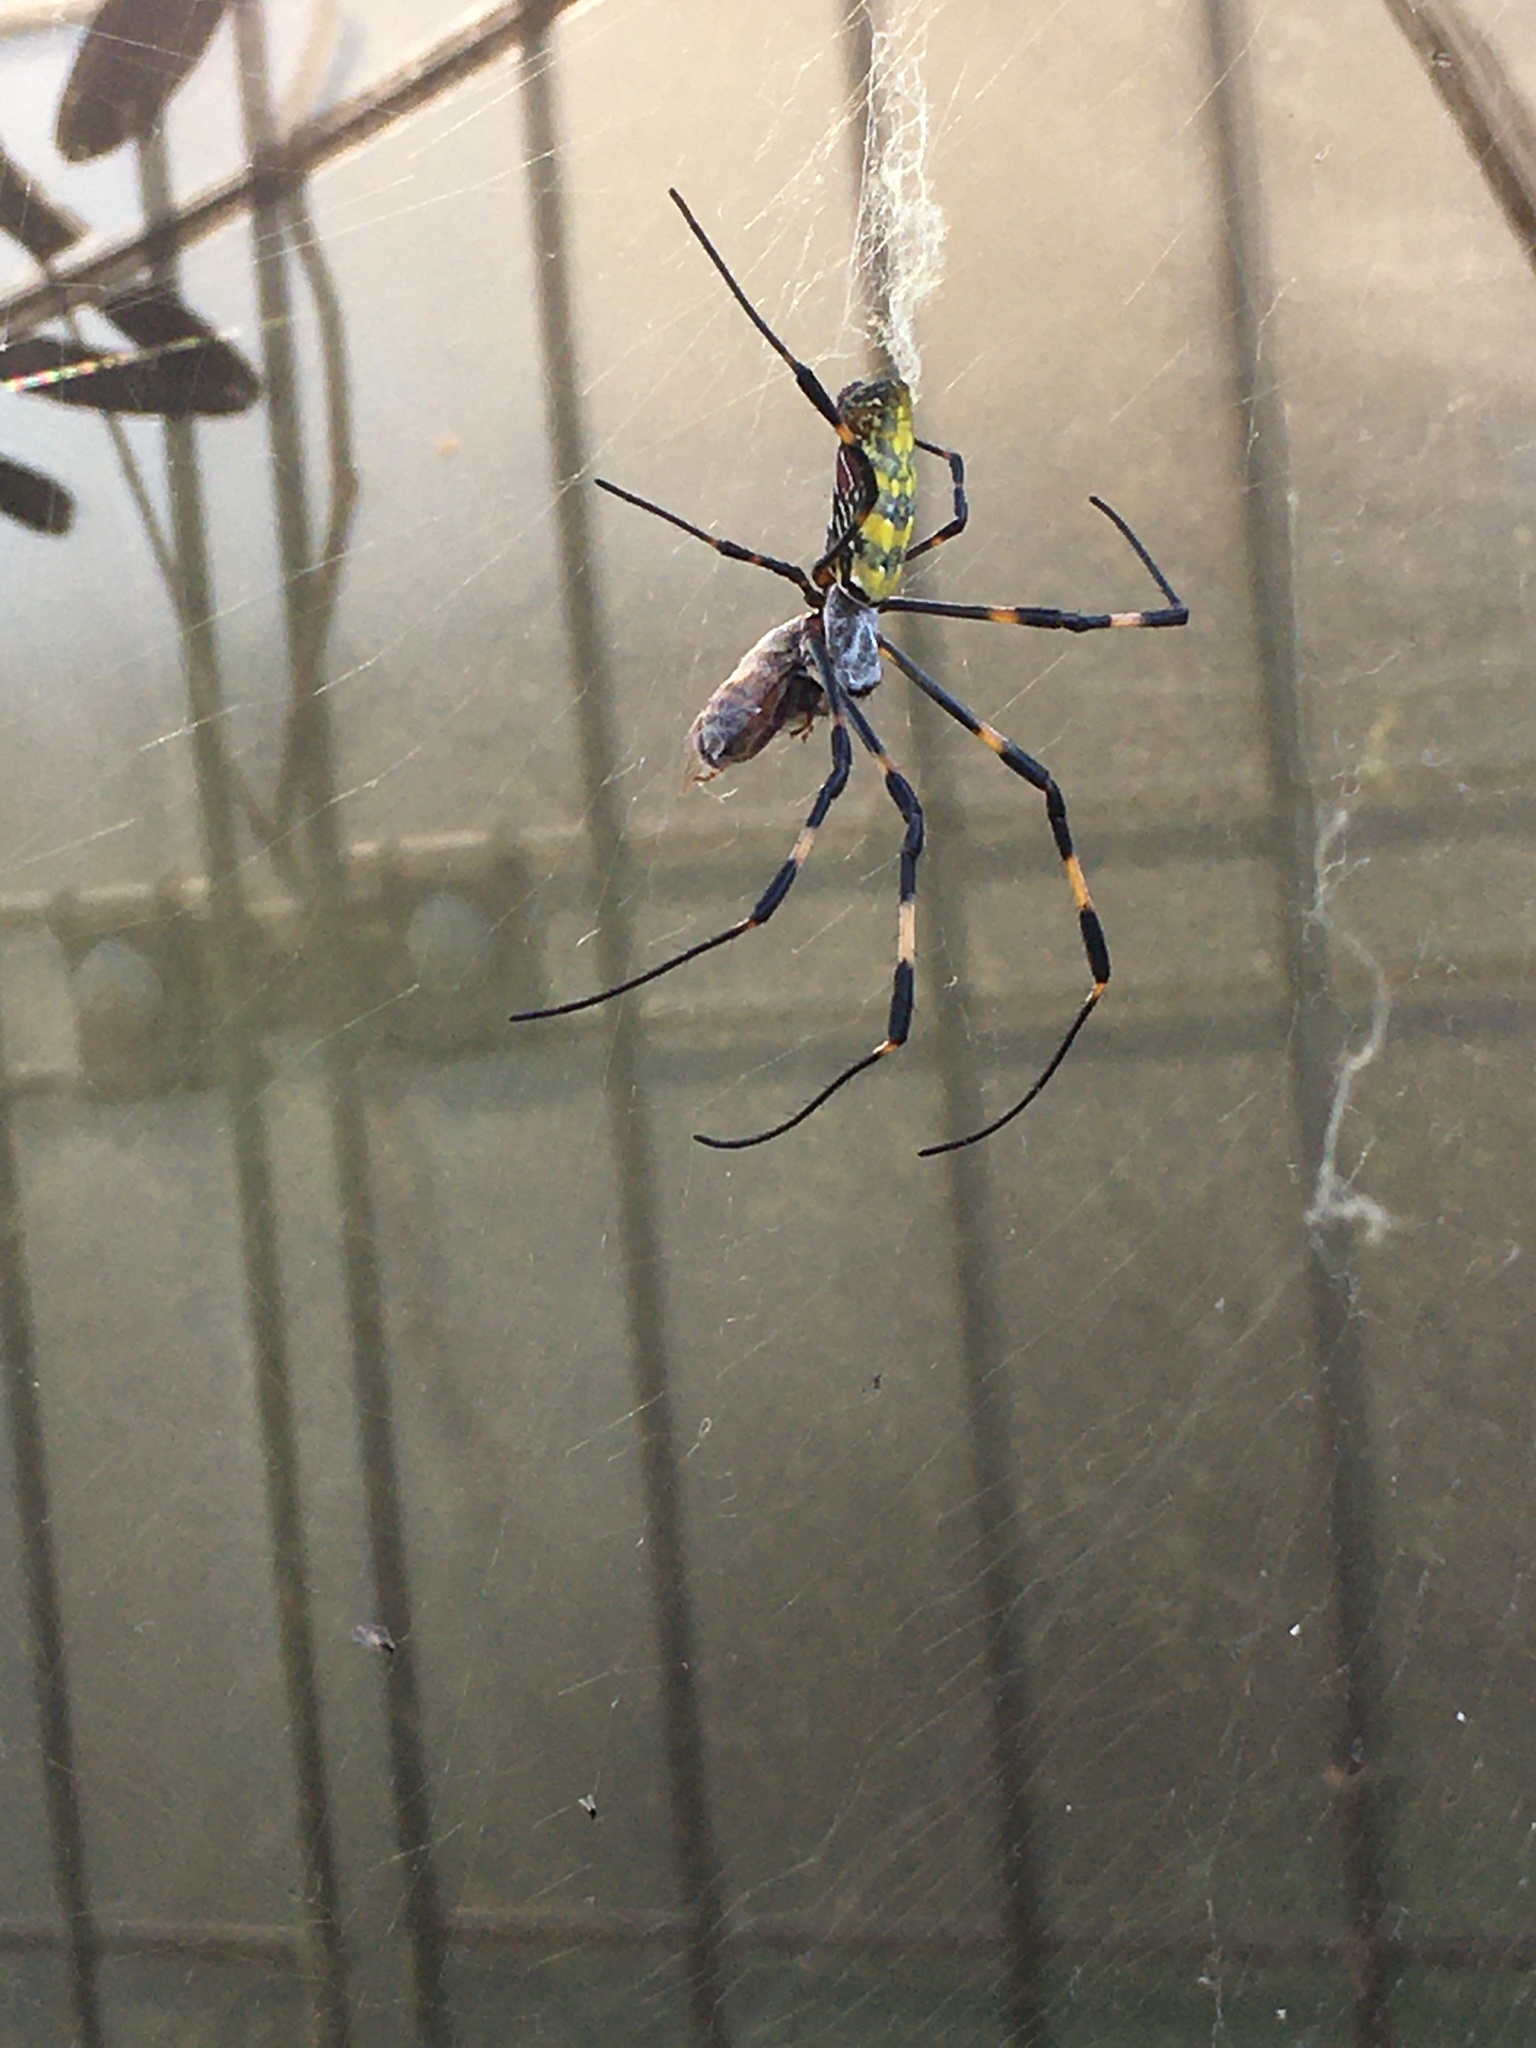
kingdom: Animalia
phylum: Arthropoda
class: Arachnida
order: Araneae
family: Araneidae
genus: Trichonephila
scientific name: Trichonephila clavata
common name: Jorō spider
